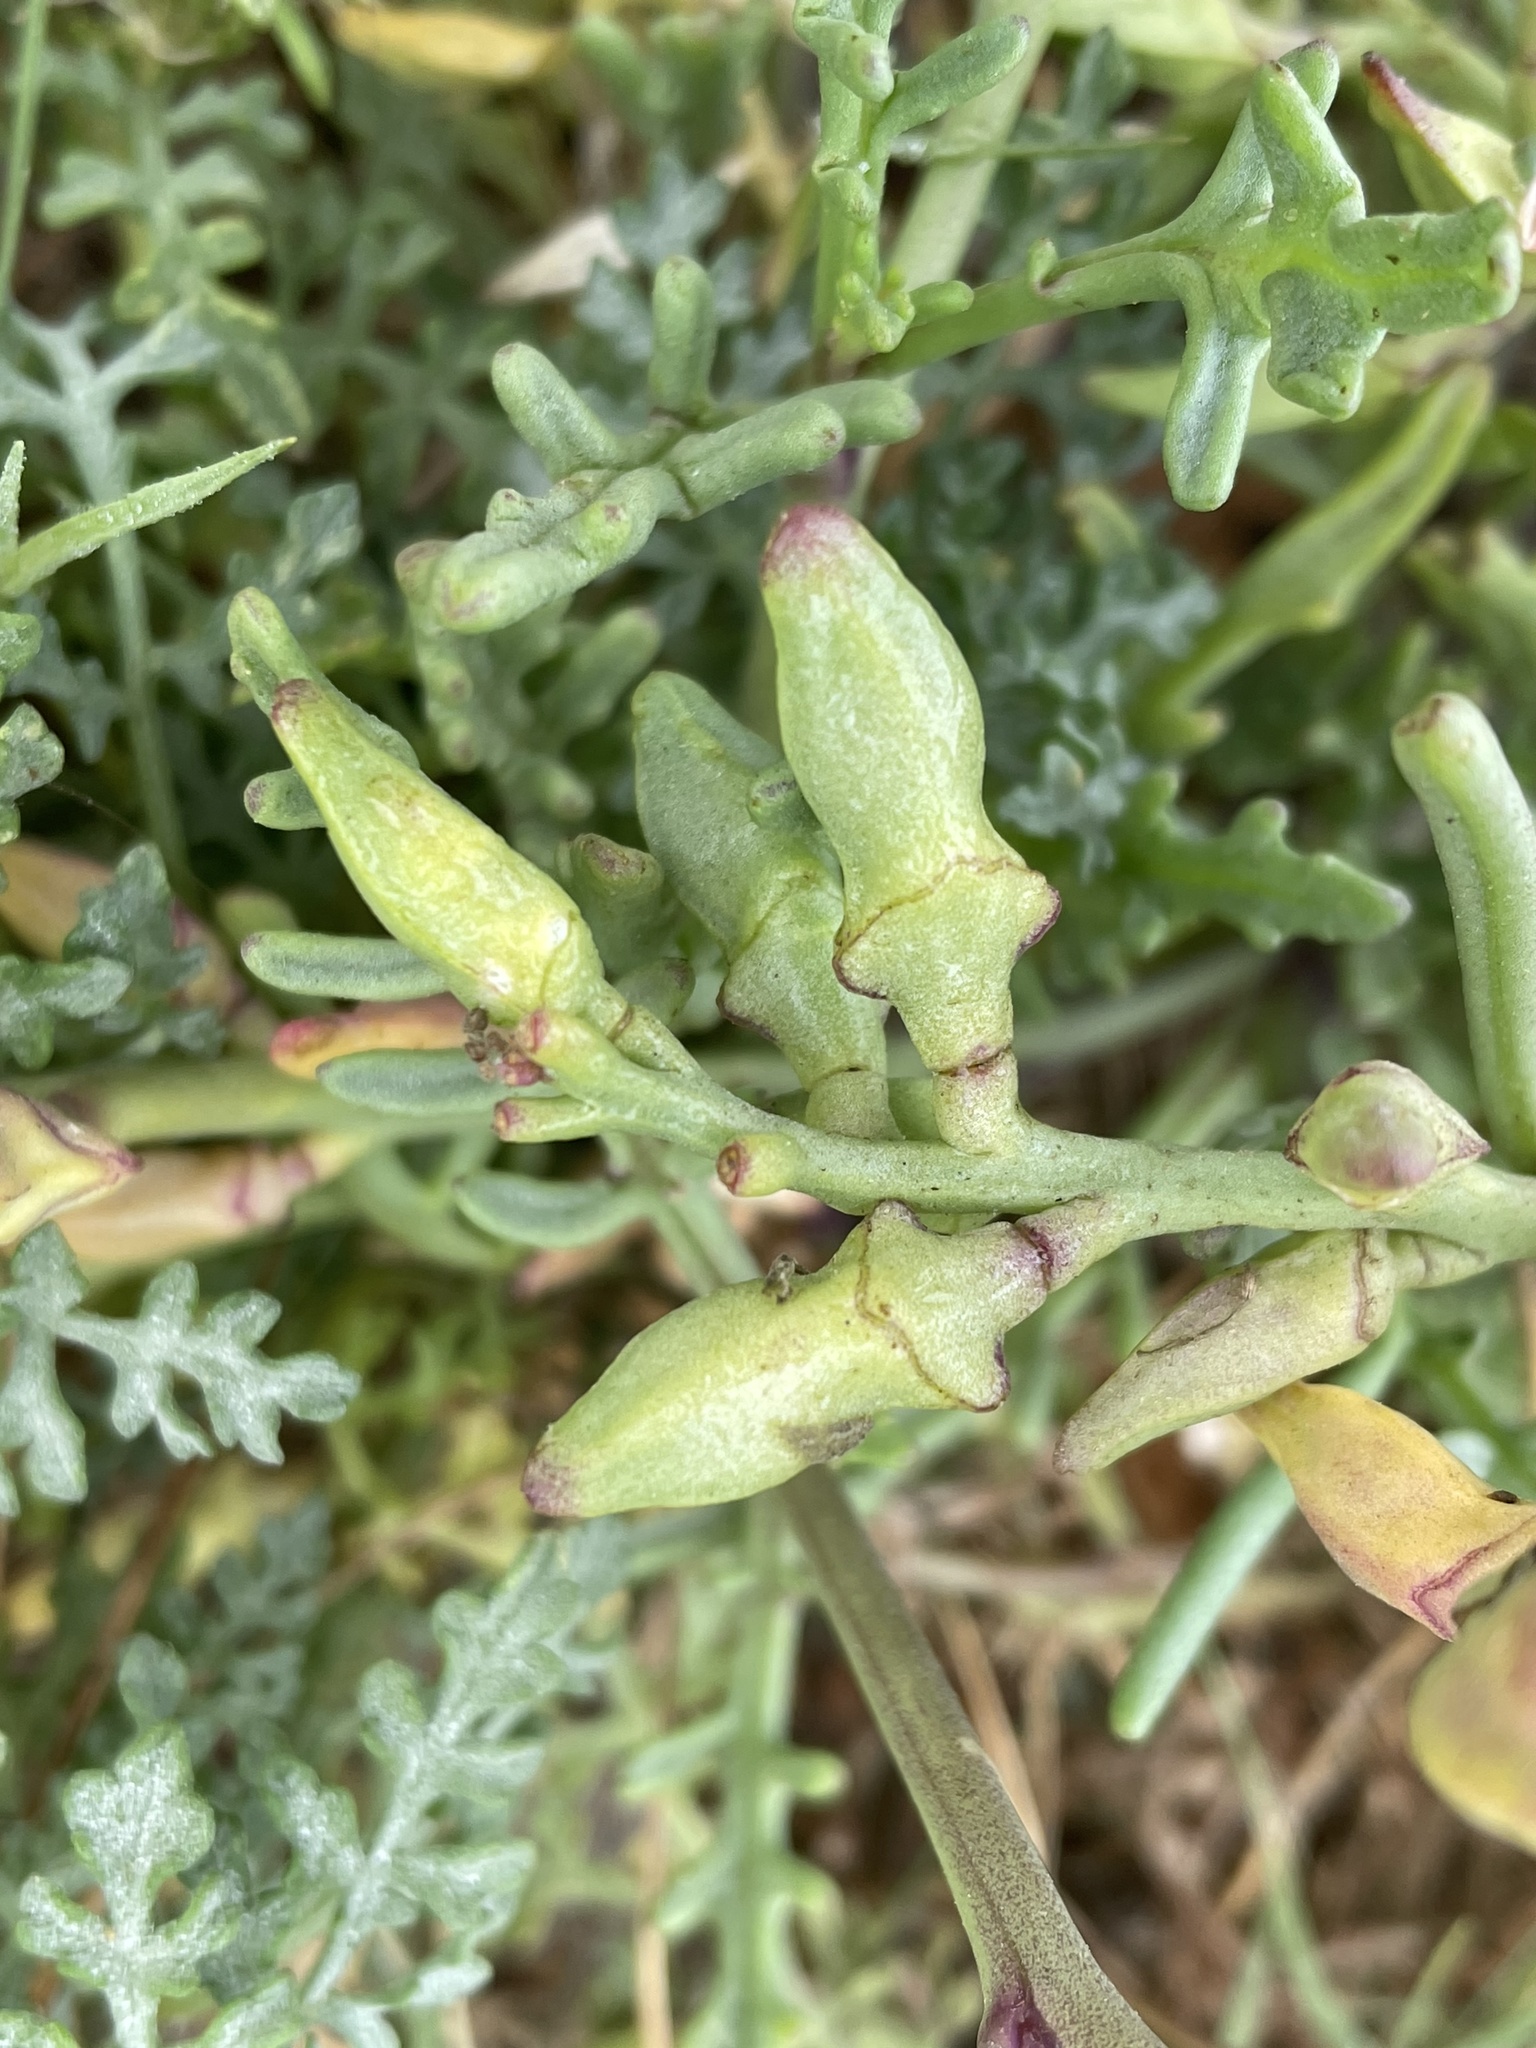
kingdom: Plantae
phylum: Tracheophyta
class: Magnoliopsida
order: Brassicales
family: Brassicaceae
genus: Cakile
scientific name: Cakile maritima
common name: Sea rocket
